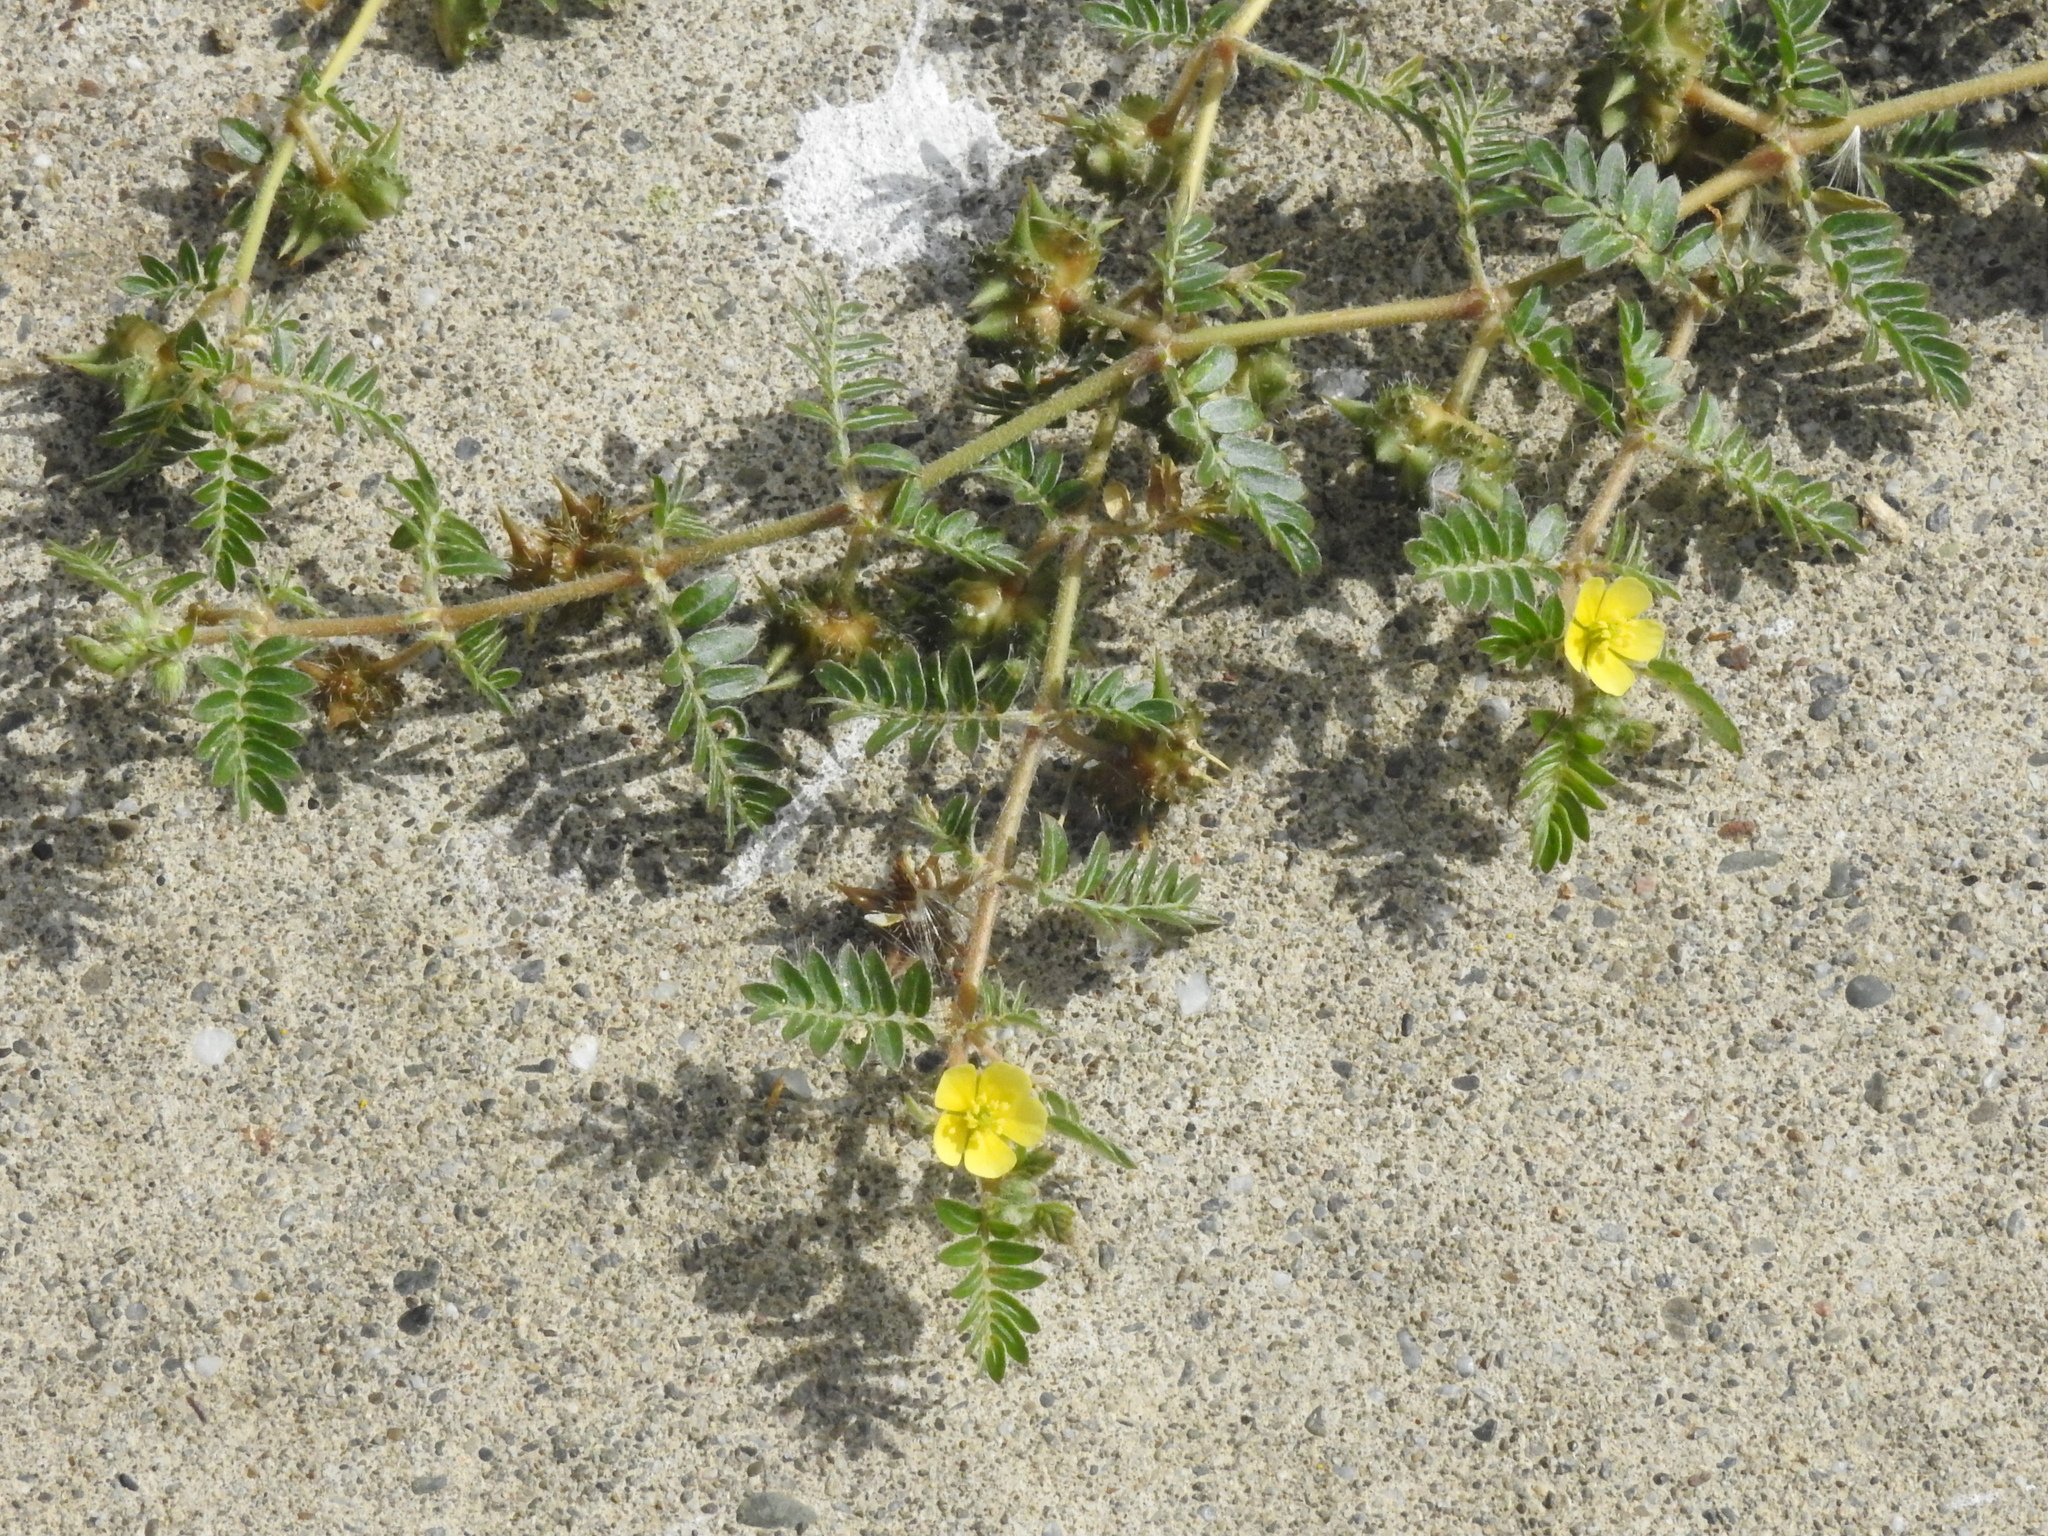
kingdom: Plantae
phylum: Tracheophyta
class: Magnoliopsida
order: Zygophyllales
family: Zygophyllaceae
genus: Tribulus
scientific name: Tribulus terrestris
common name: Puncturevine
